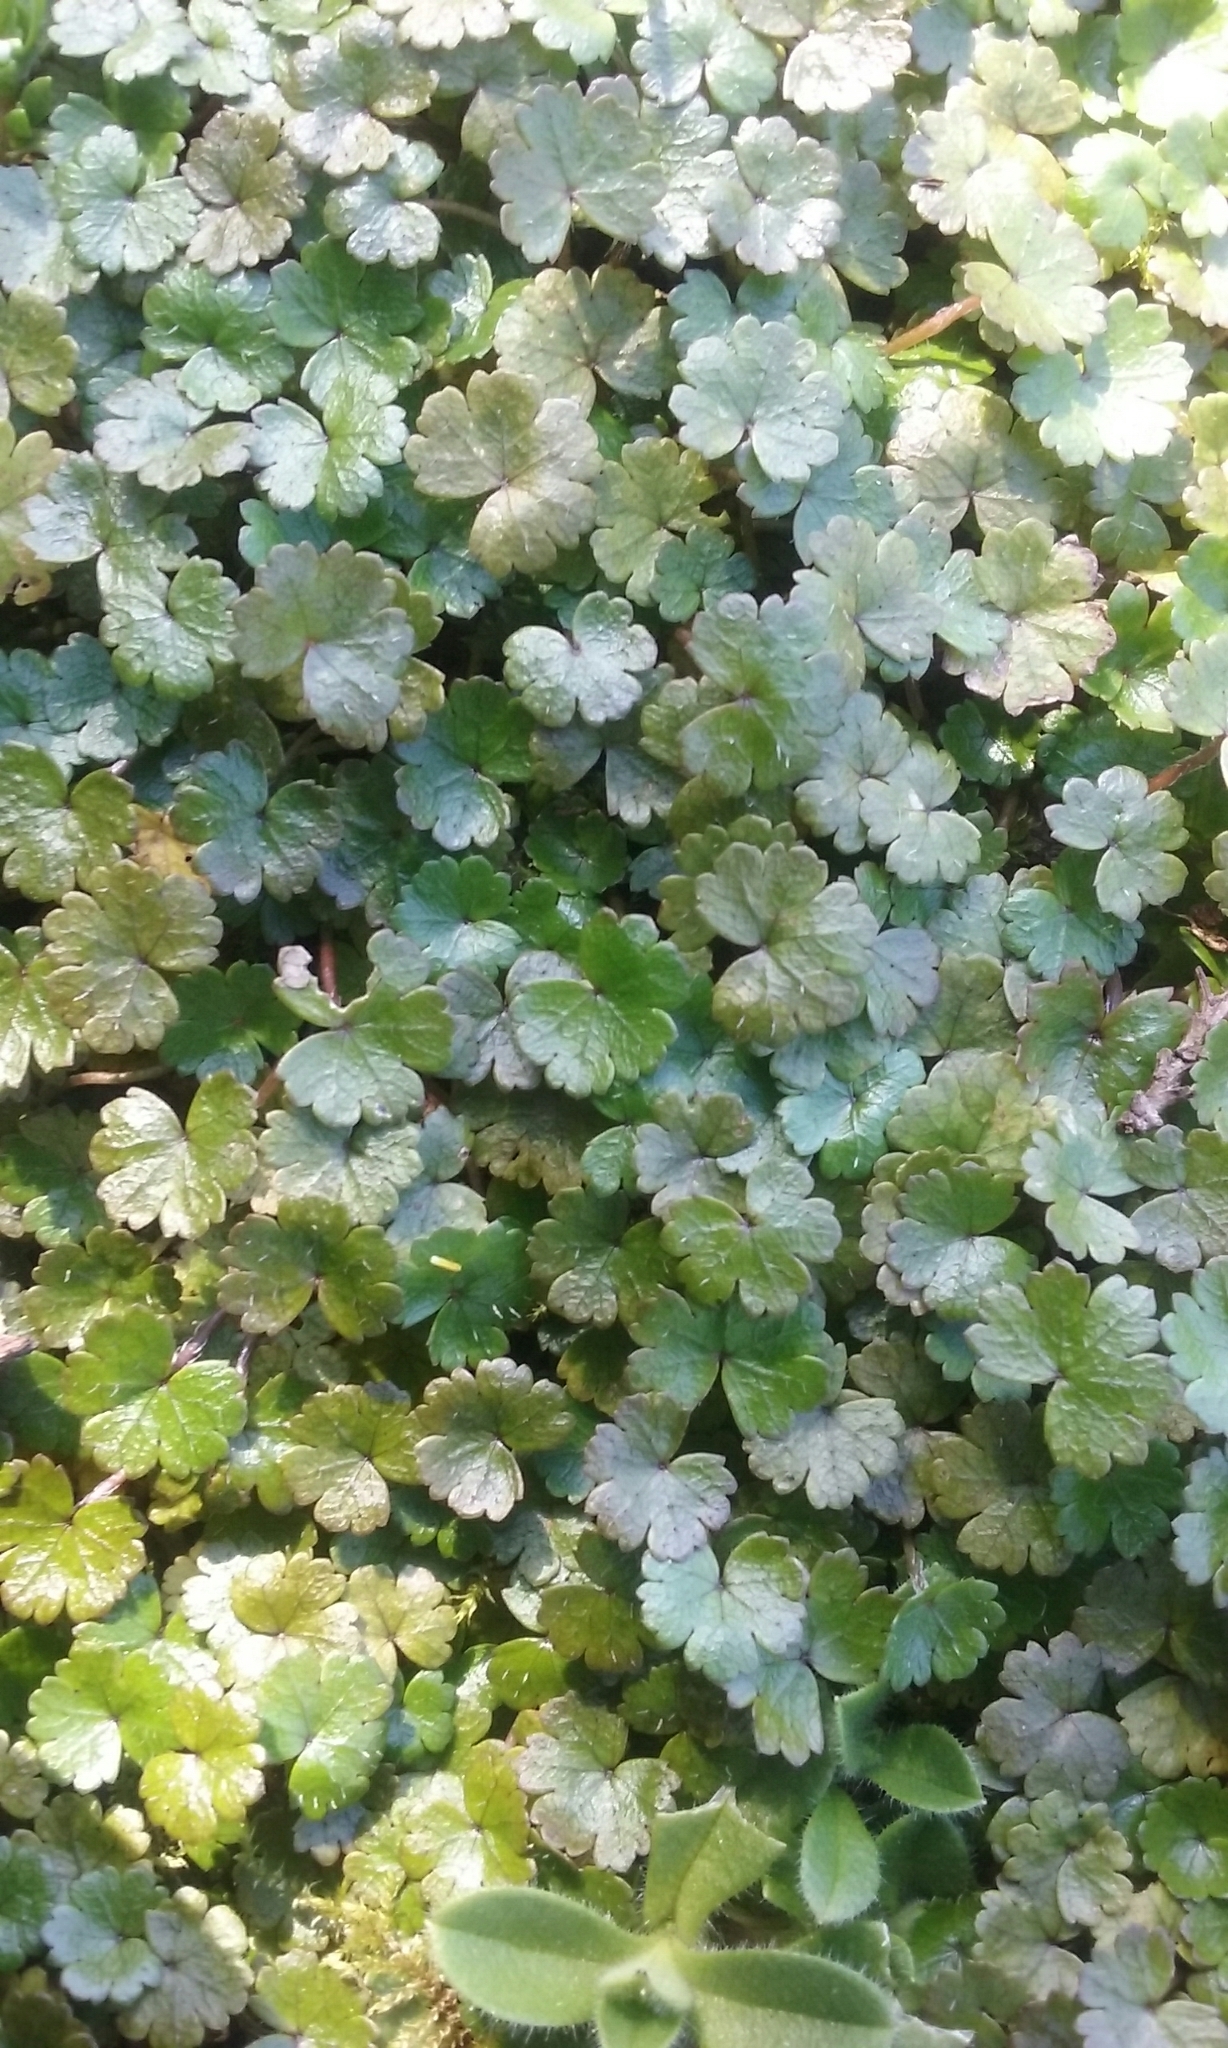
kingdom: Plantae
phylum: Tracheophyta
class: Magnoliopsida
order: Apiales
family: Araliaceae
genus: Hydrocotyle
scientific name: Hydrocotyle microphylla
